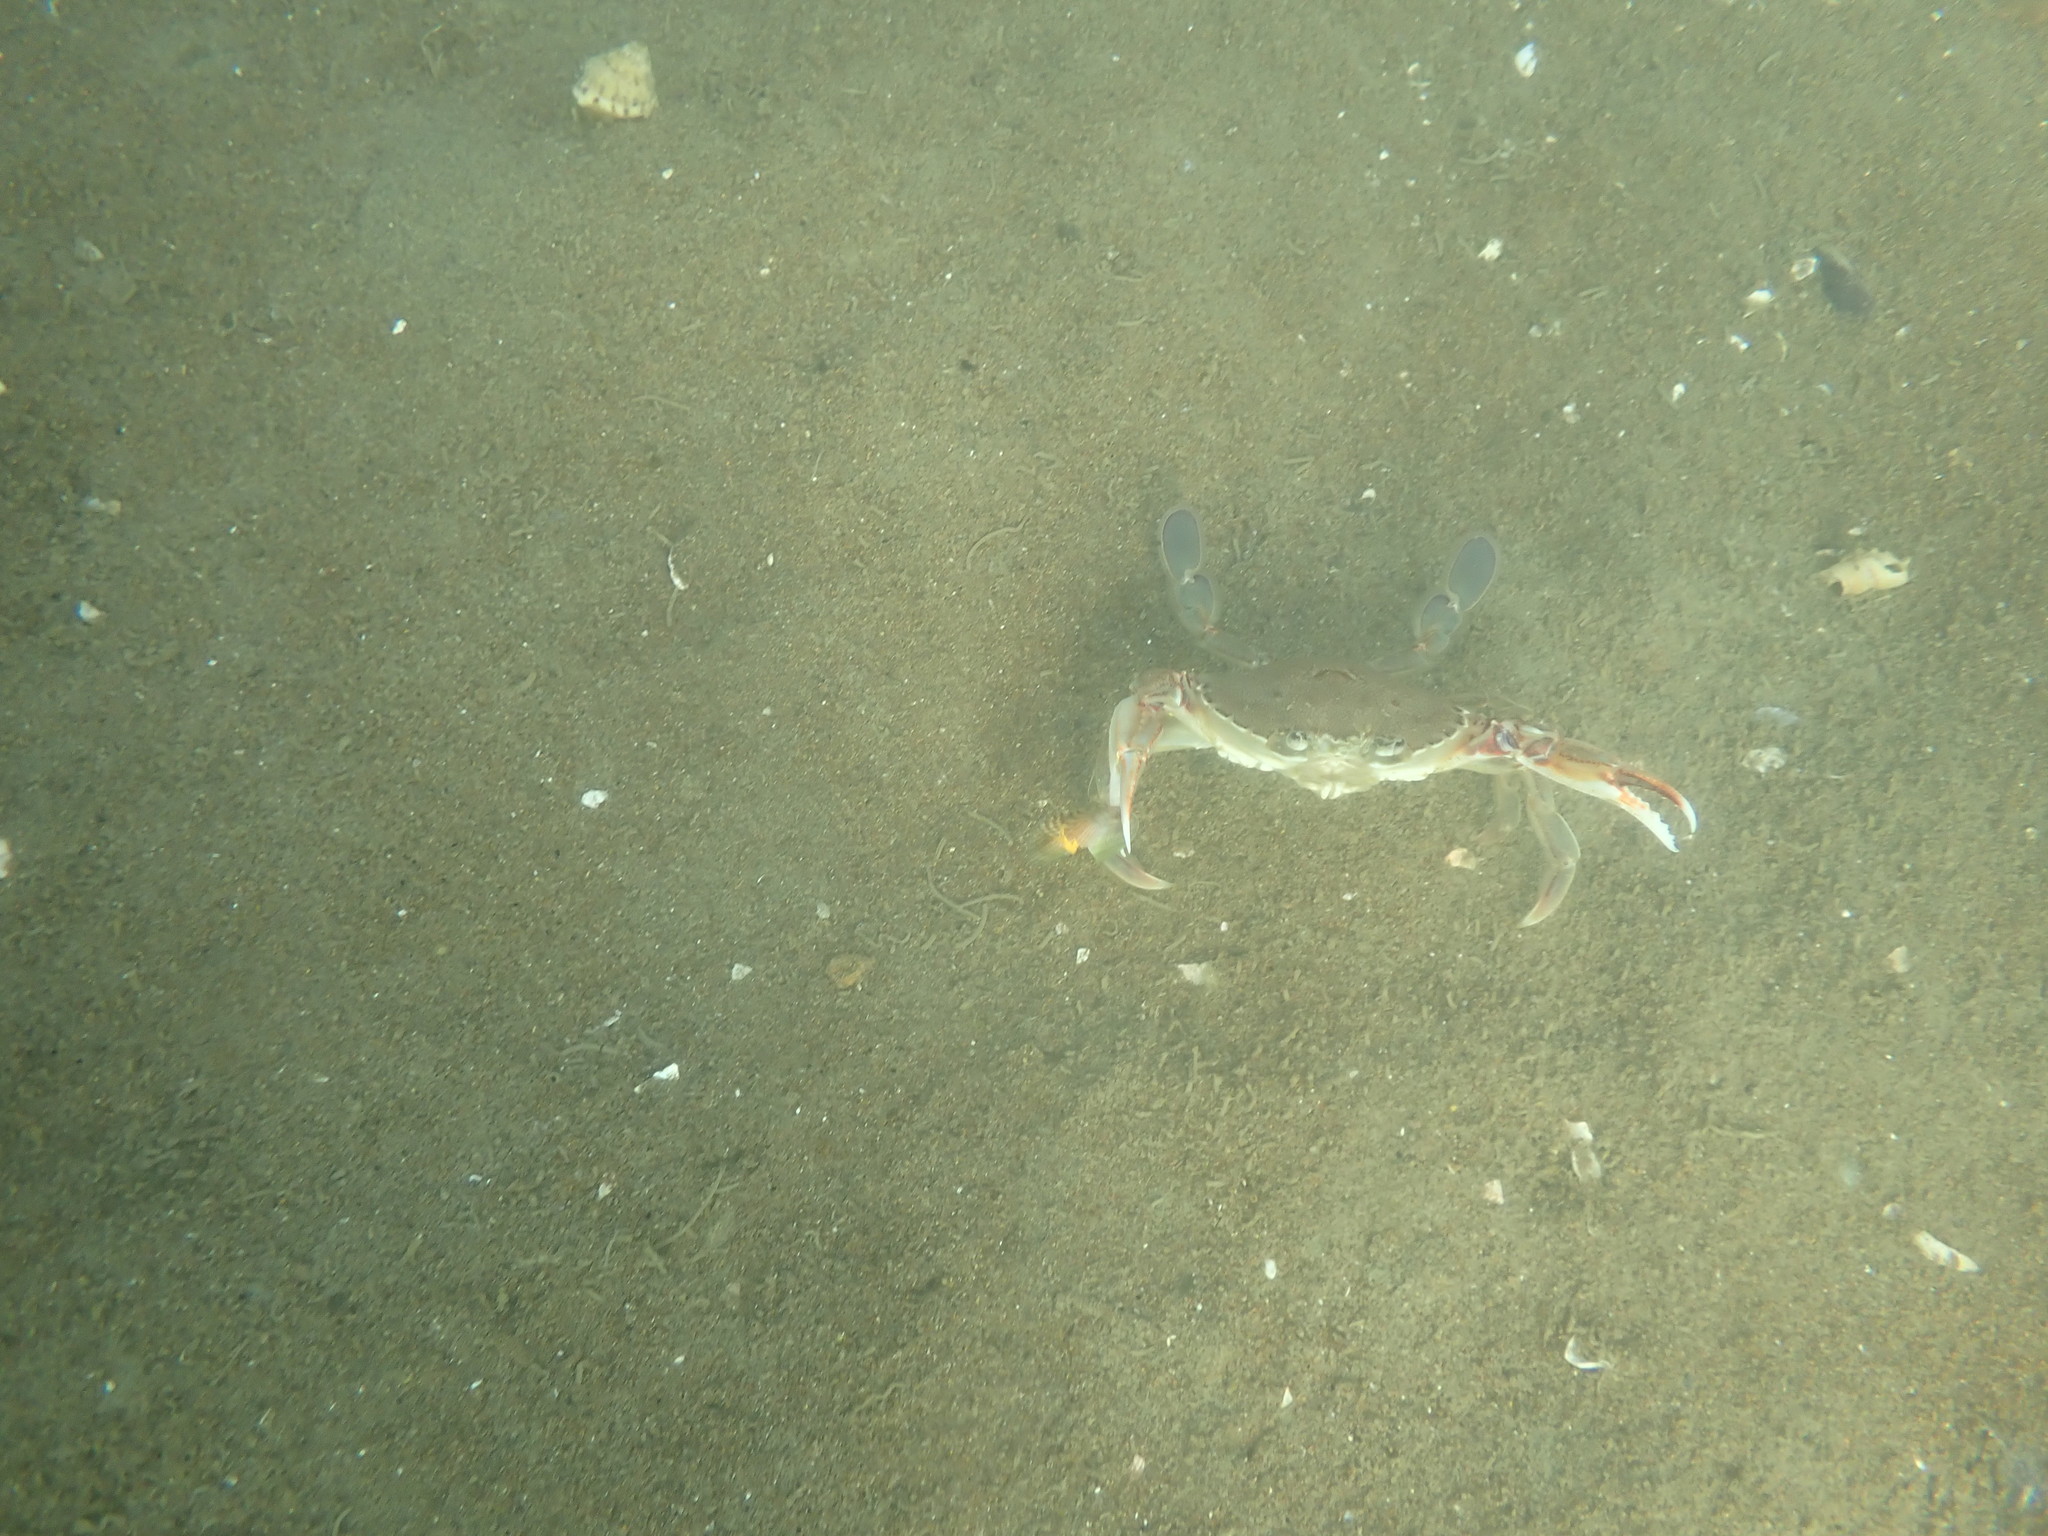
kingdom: Animalia
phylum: Arthropoda
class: Malacostraca
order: Decapoda
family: Ovalipidae
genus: Ovalipes
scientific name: Ovalipes catharus
